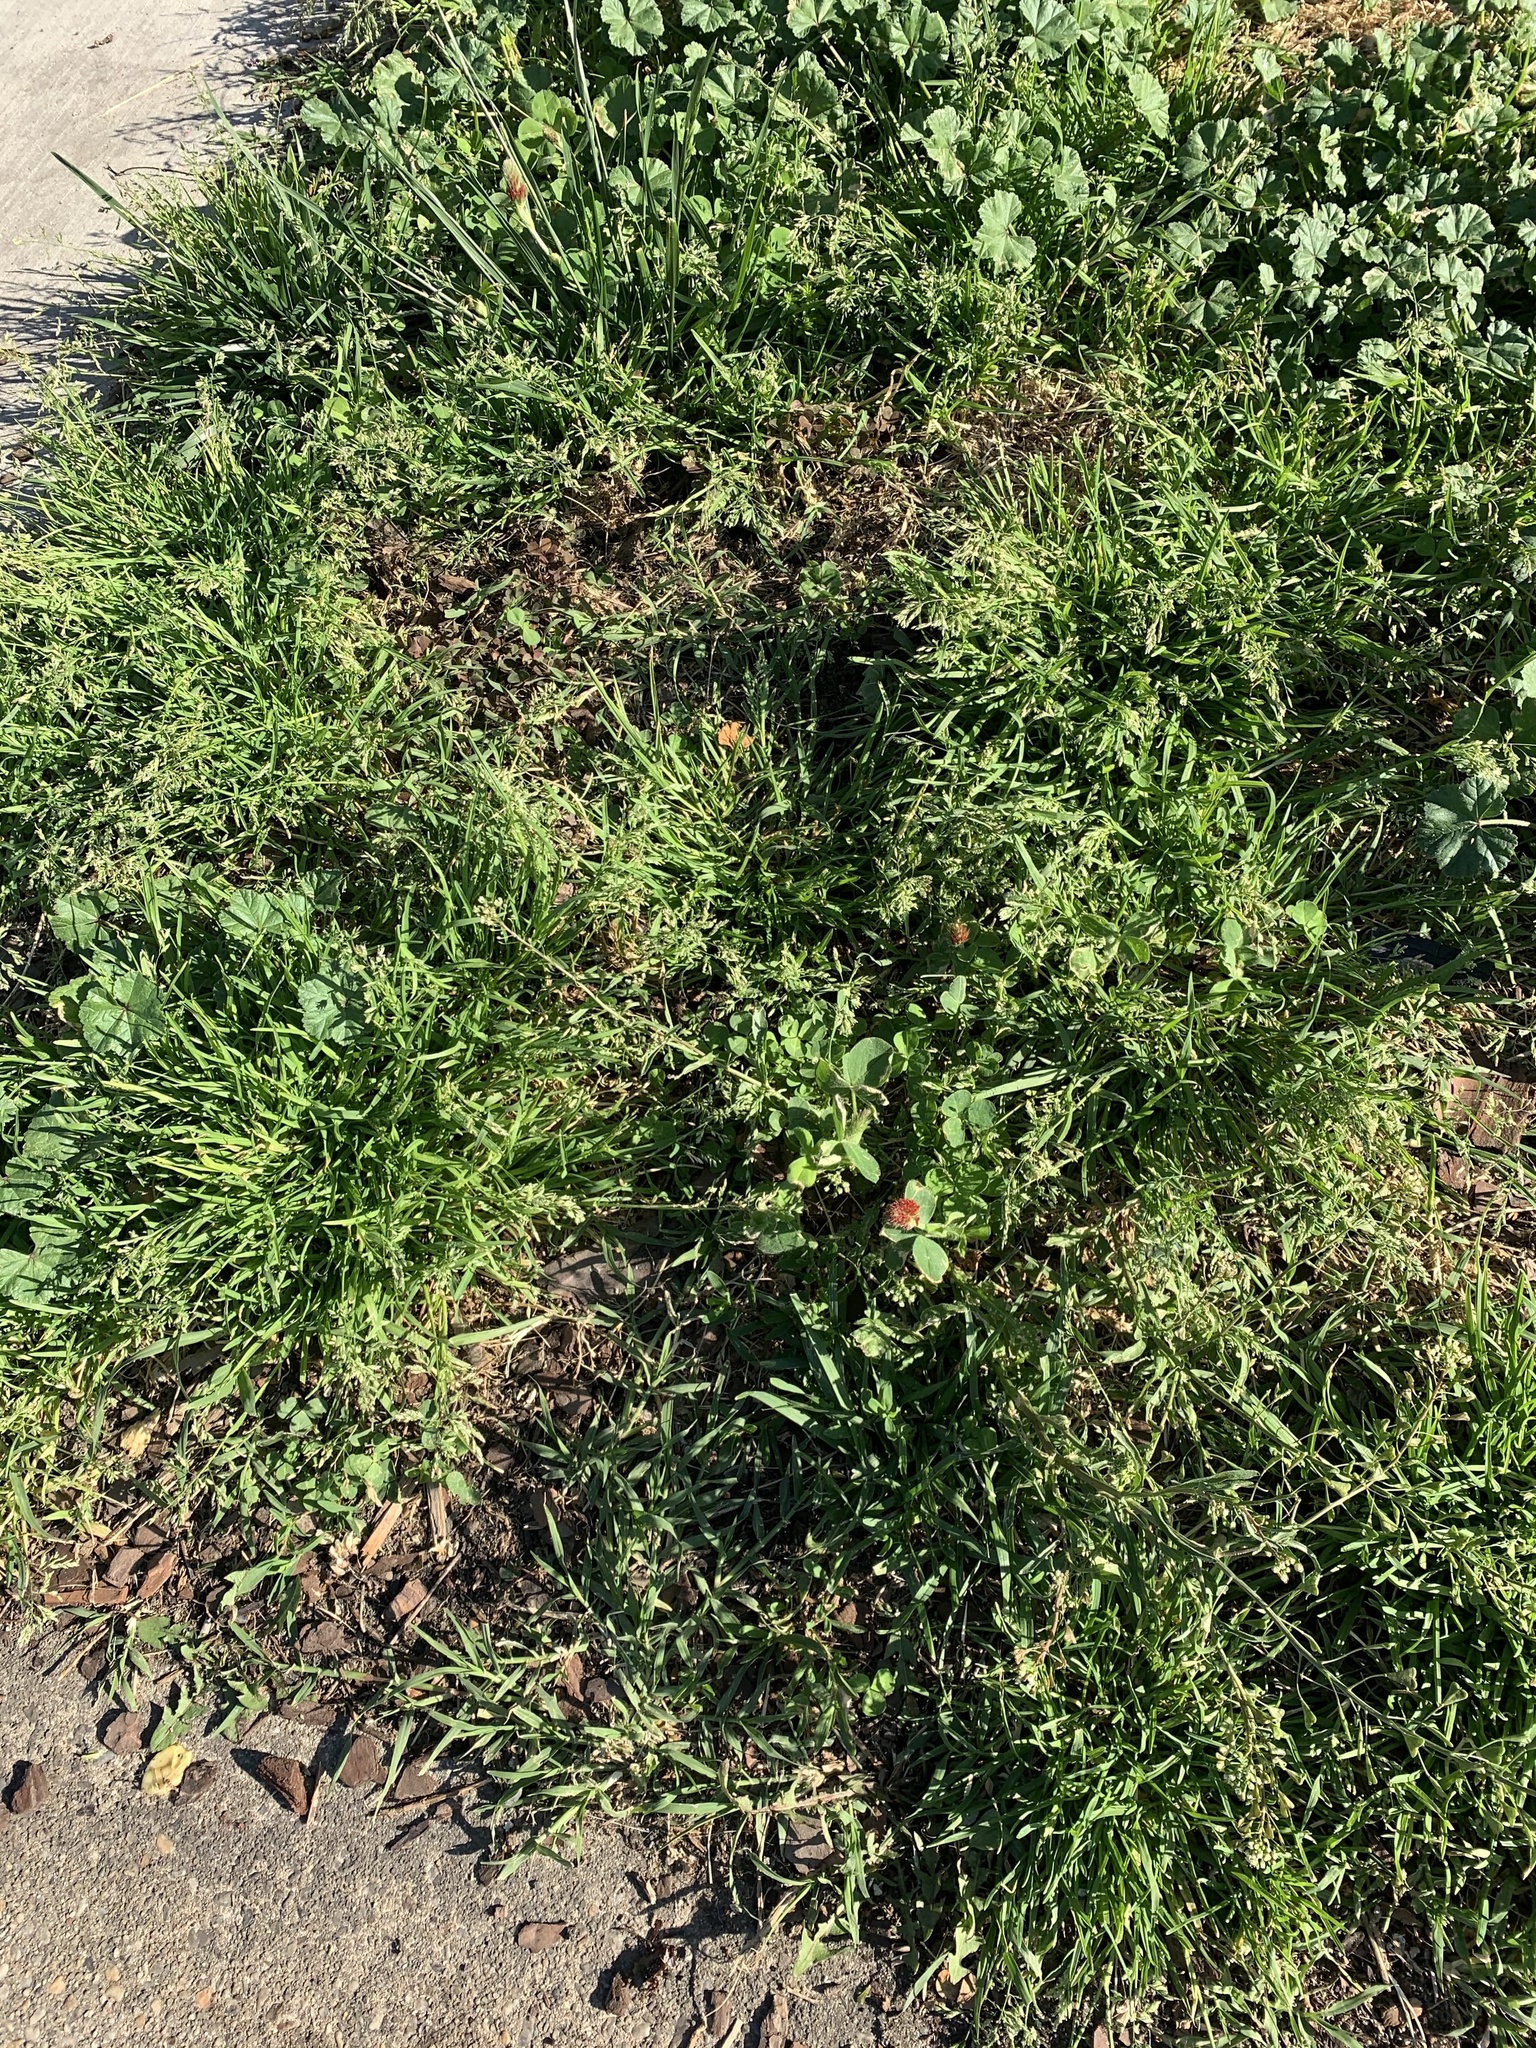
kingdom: Plantae
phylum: Tracheophyta
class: Magnoliopsida
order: Fabales
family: Fabaceae
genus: Trifolium
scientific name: Trifolium incarnatum
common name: Crimson clover
